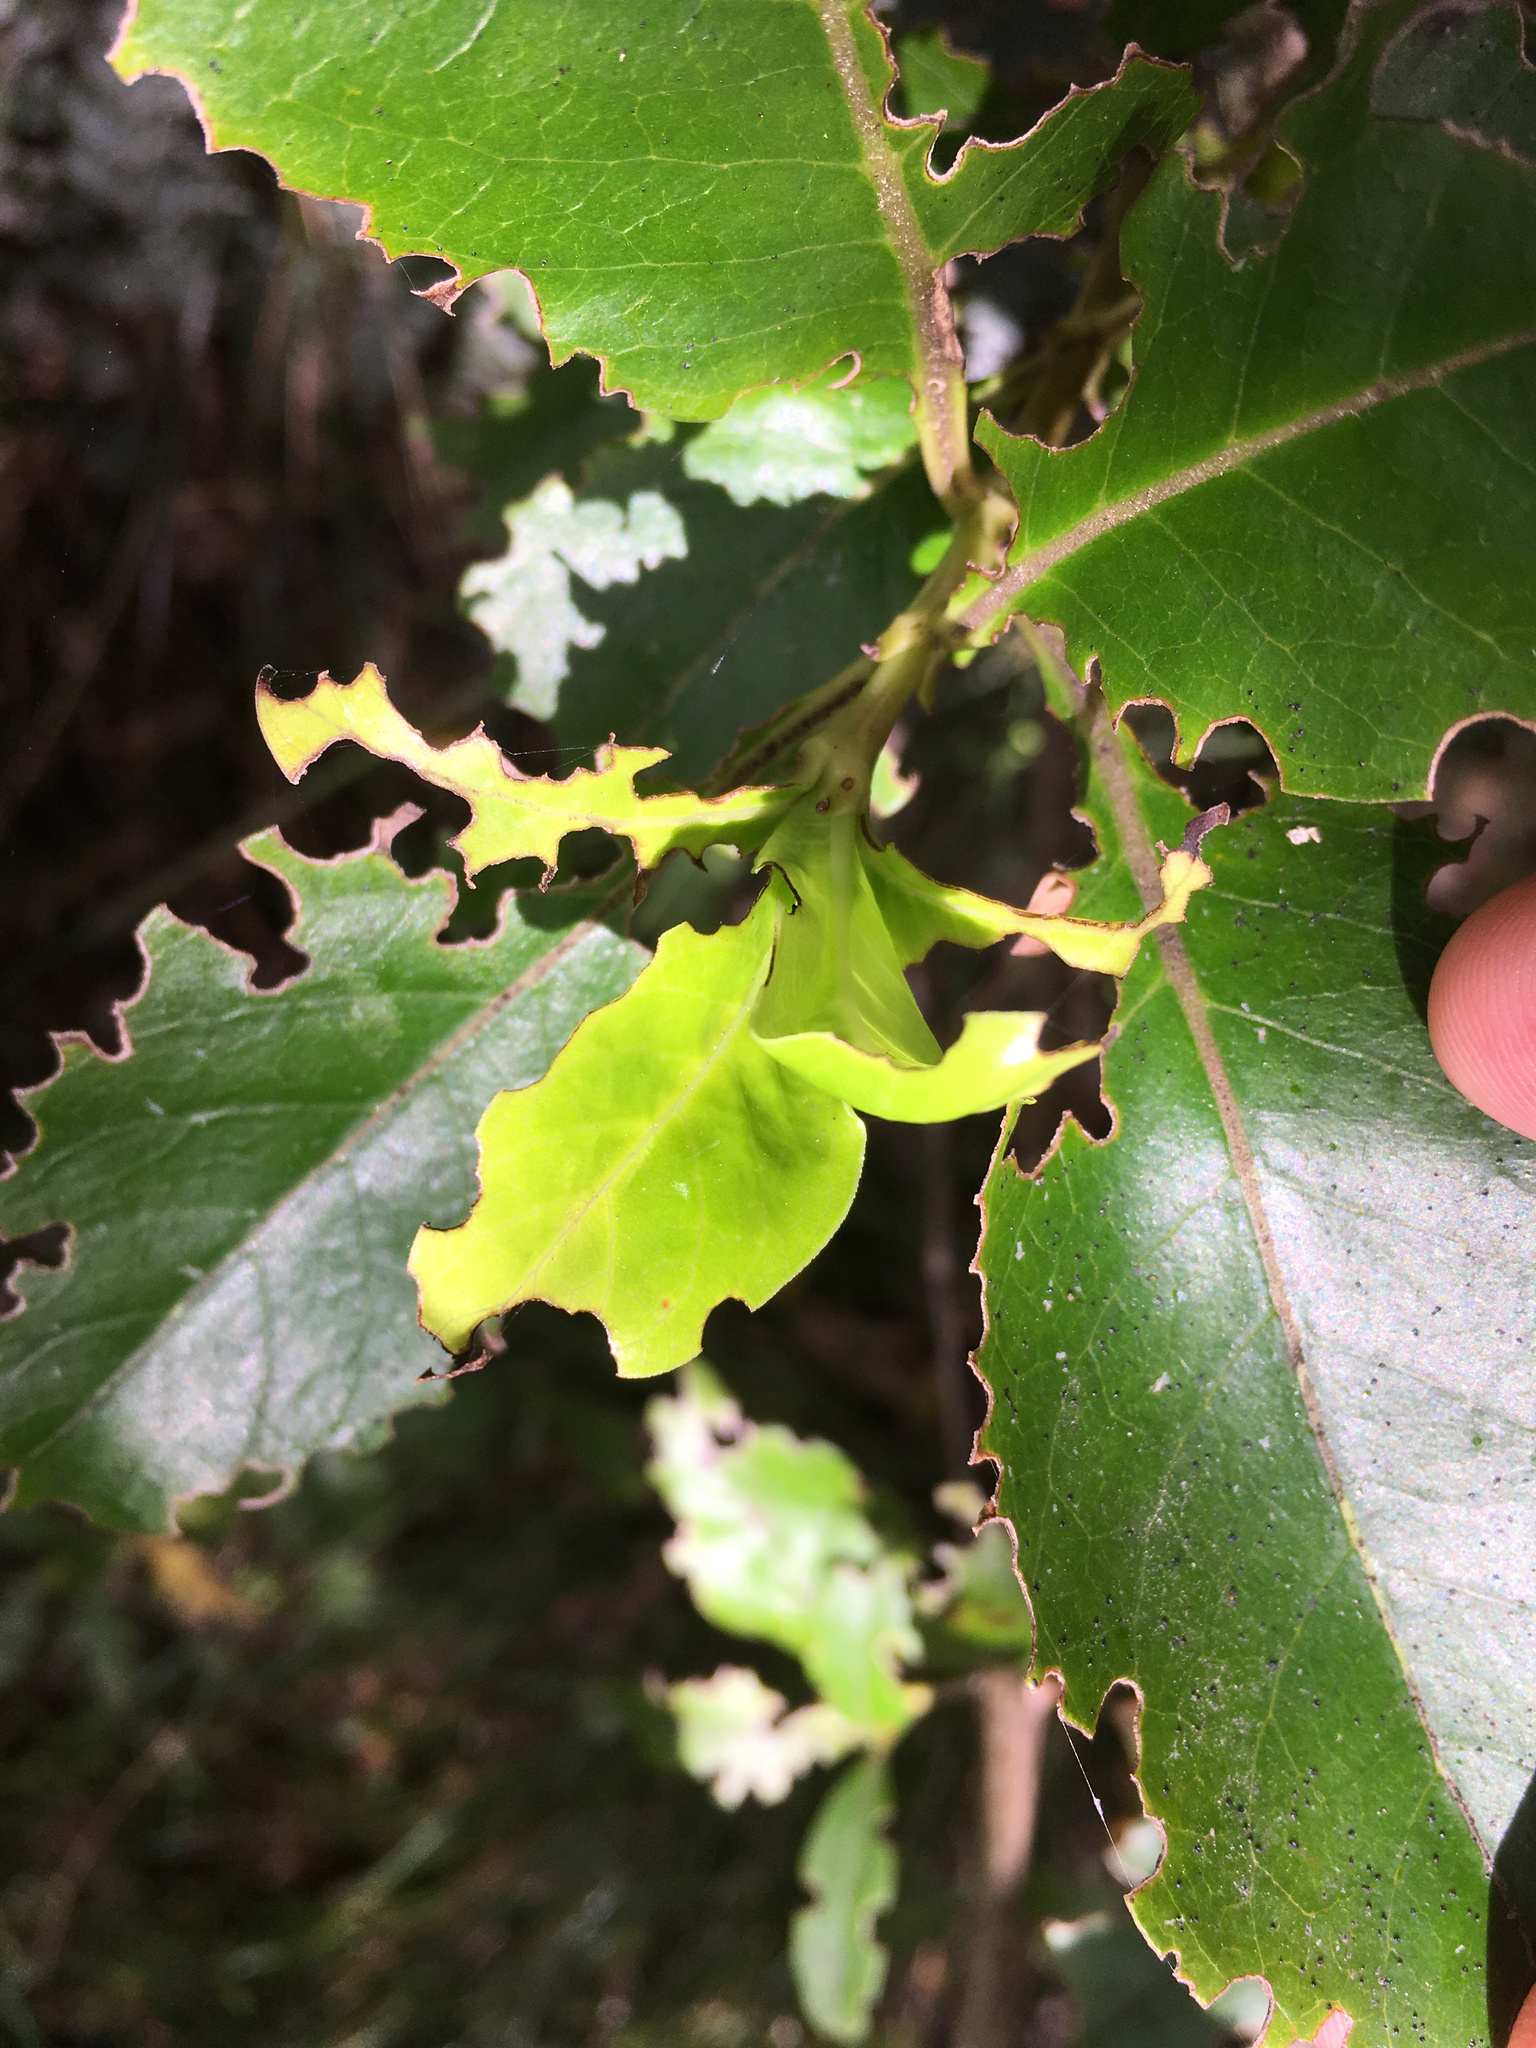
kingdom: Plantae
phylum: Tracheophyta
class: Magnoliopsida
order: Gentianales
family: Rubiaceae
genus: Coprosma
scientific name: Coprosma robusta
